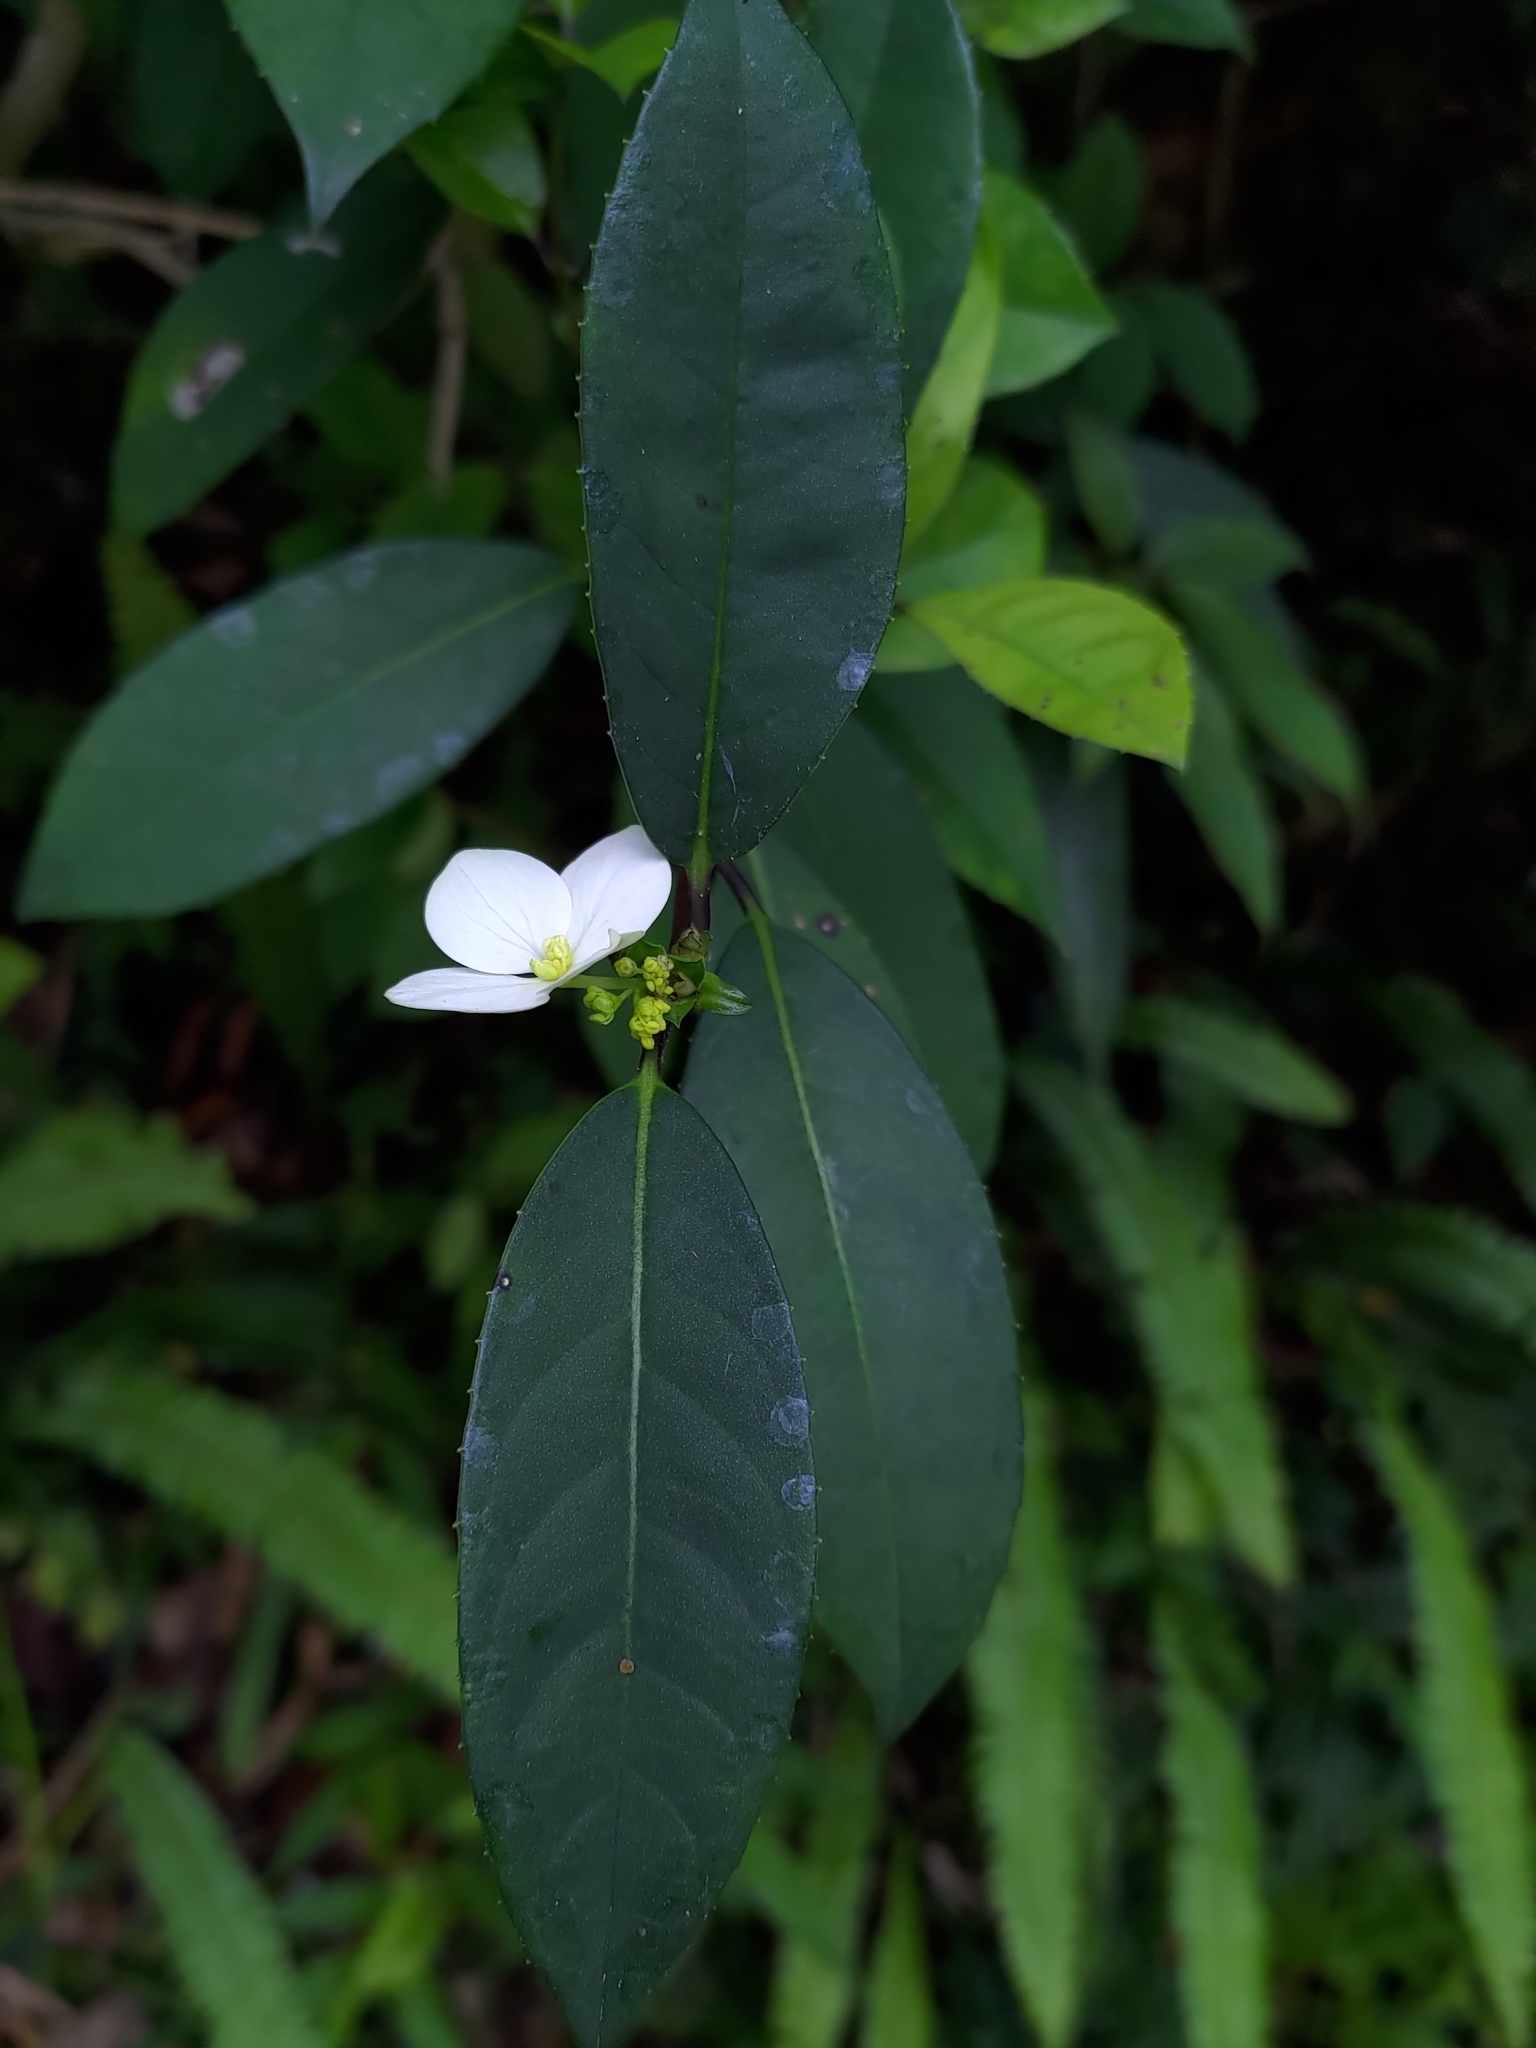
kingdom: Plantae
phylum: Tracheophyta
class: Magnoliopsida
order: Cornales
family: Hydrangeaceae
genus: Hydrangea
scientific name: Hydrangea chinensis
